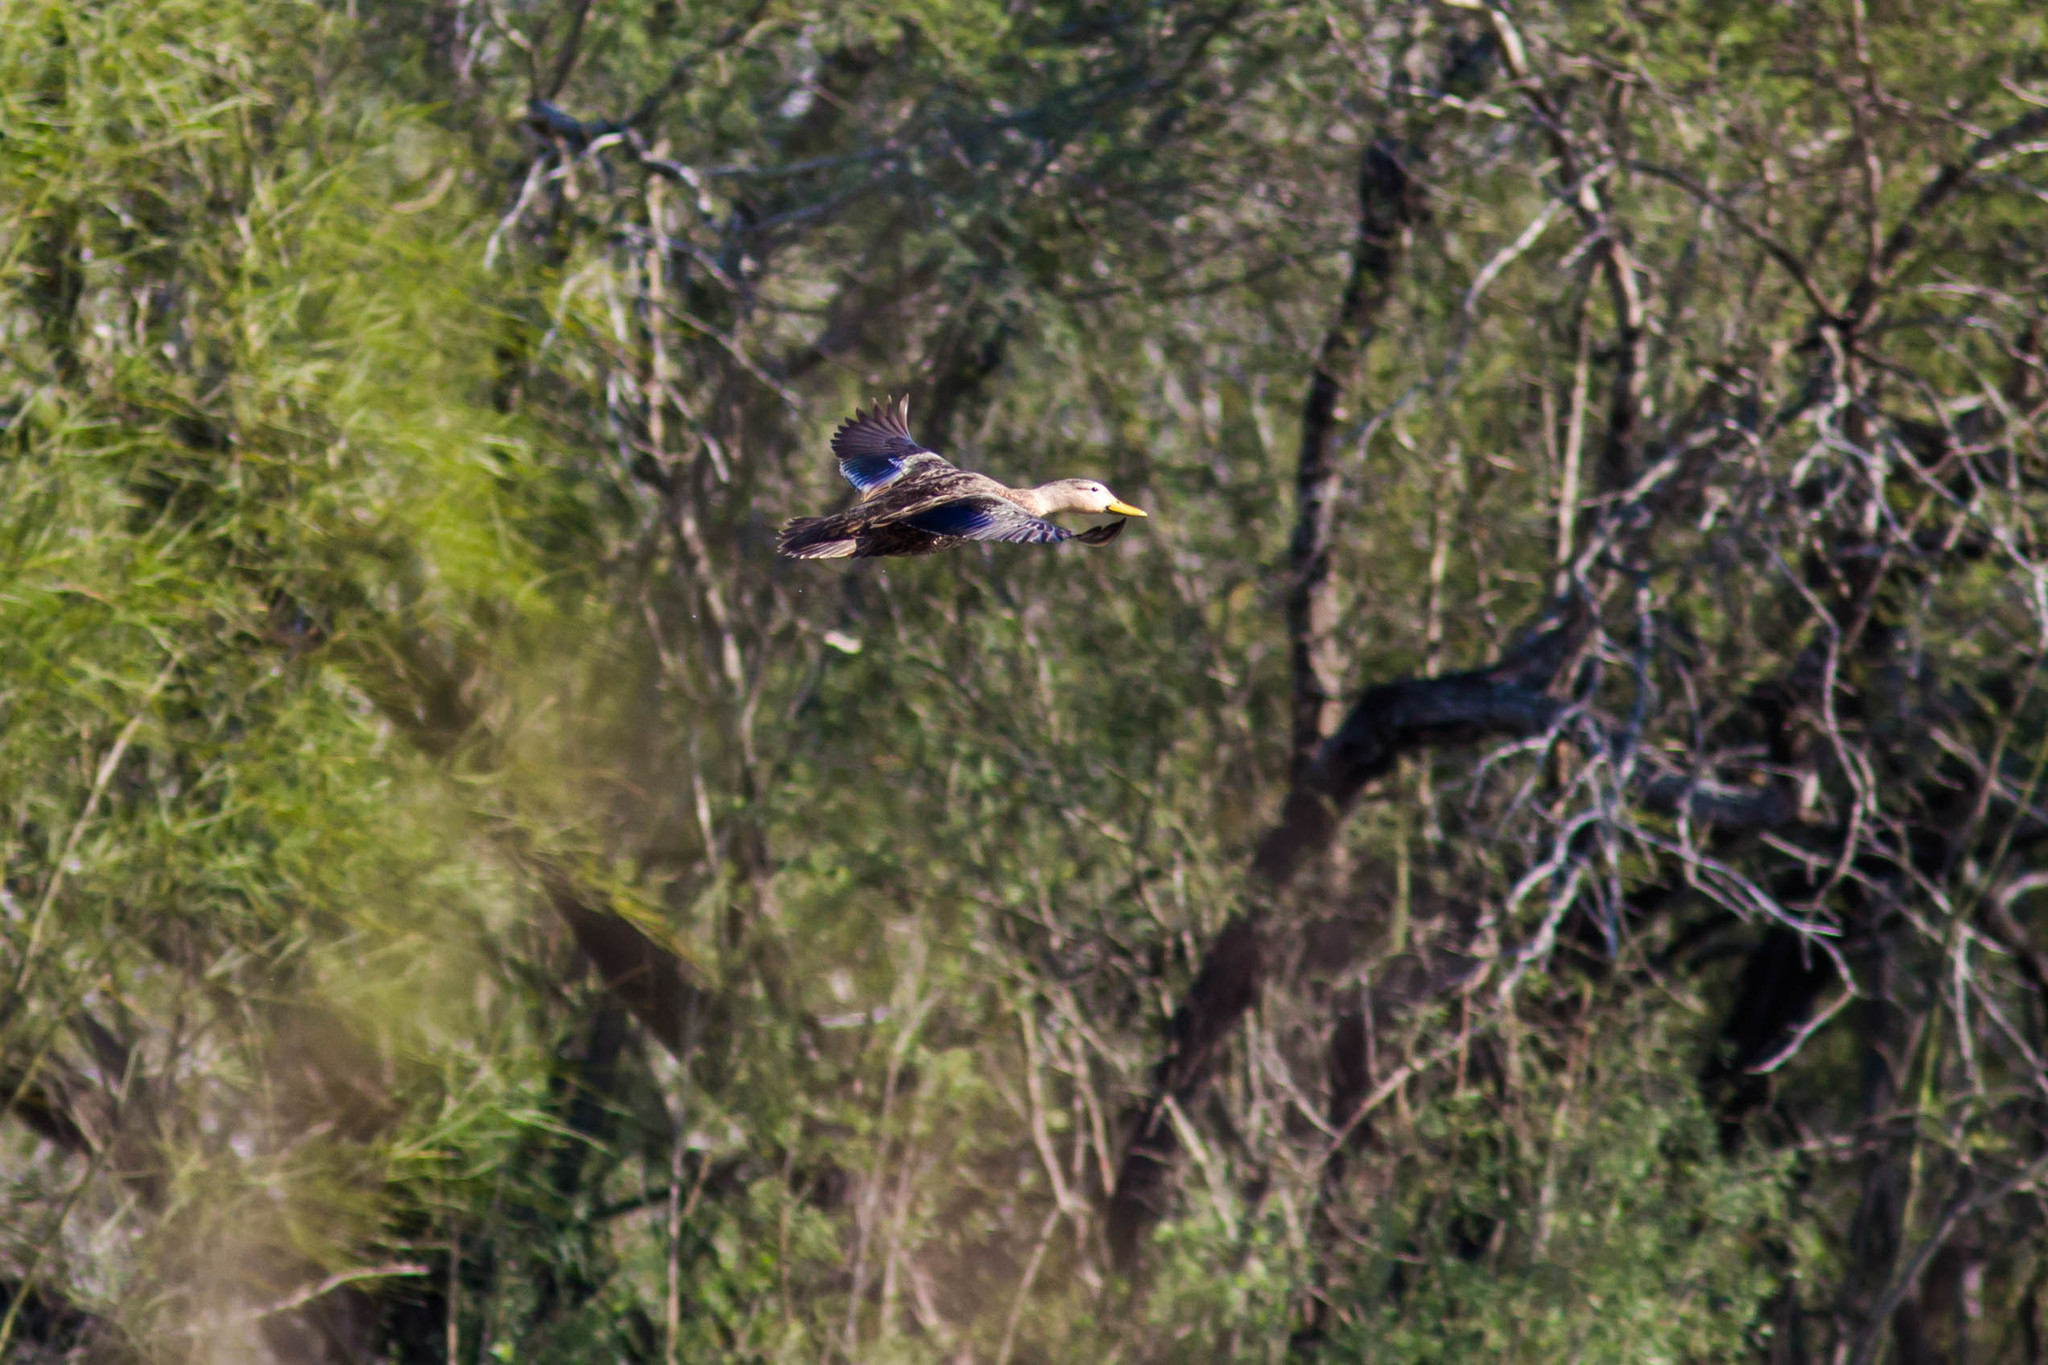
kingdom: Animalia
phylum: Chordata
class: Aves
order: Anseriformes
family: Anatidae
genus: Anas
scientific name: Anas fulvigula
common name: Mottled duck
